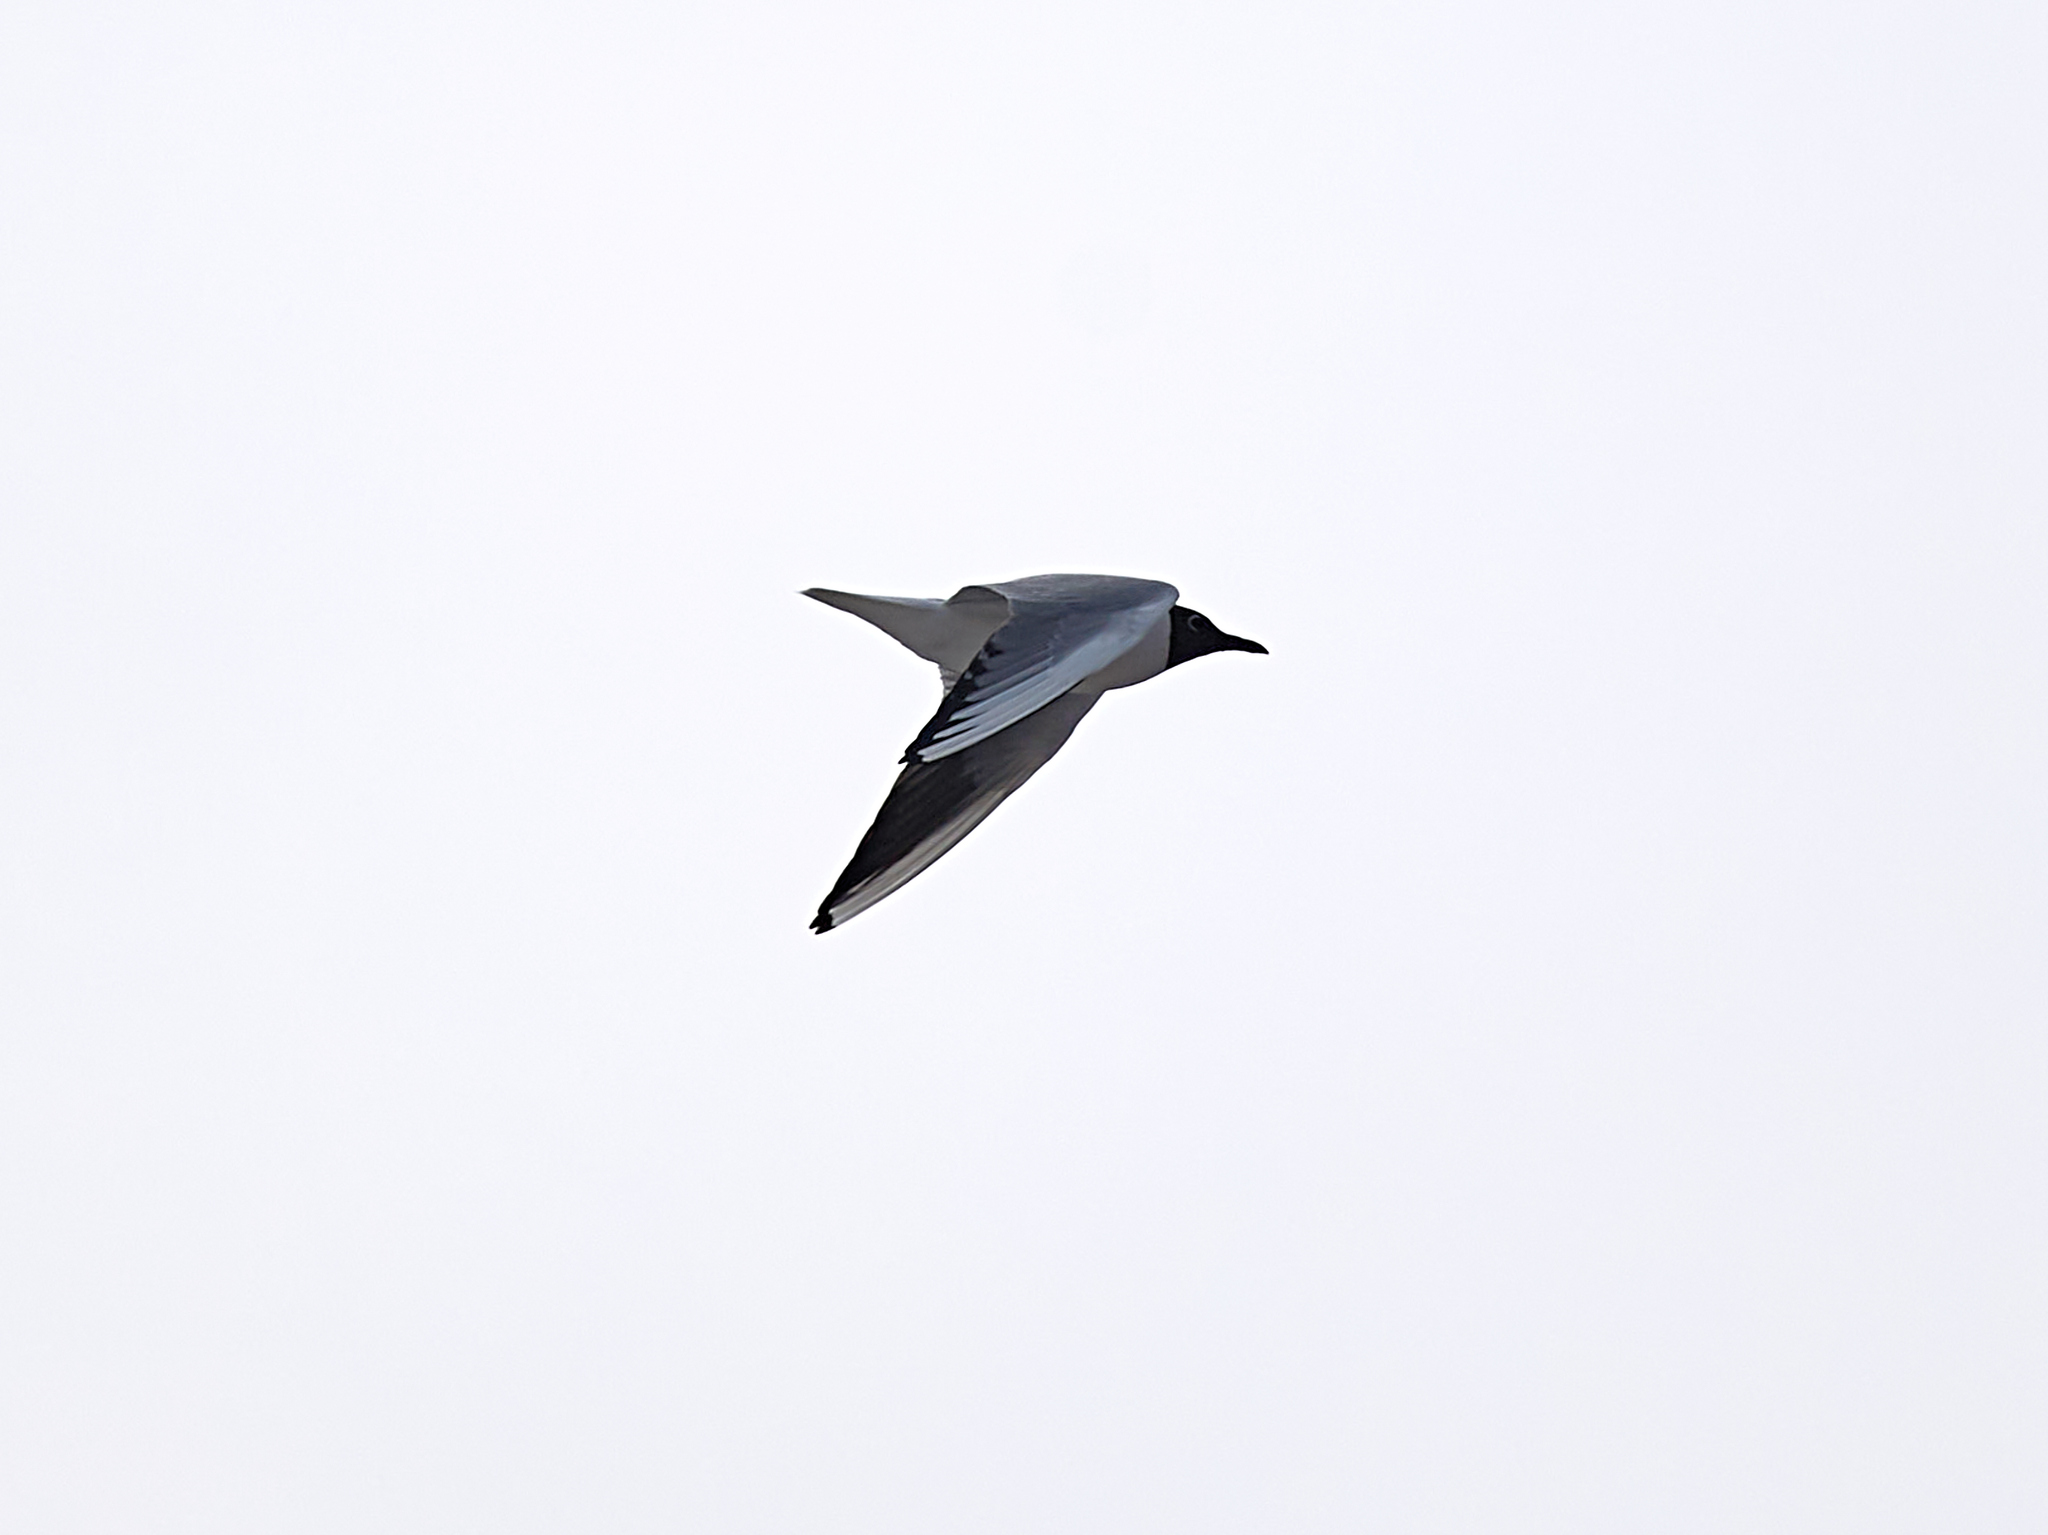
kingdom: Animalia
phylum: Chordata
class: Aves
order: Charadriiformes
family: Laridae
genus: Chroicocephalus
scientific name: Chroicocephalus ridibundus
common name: Black-headed gull
